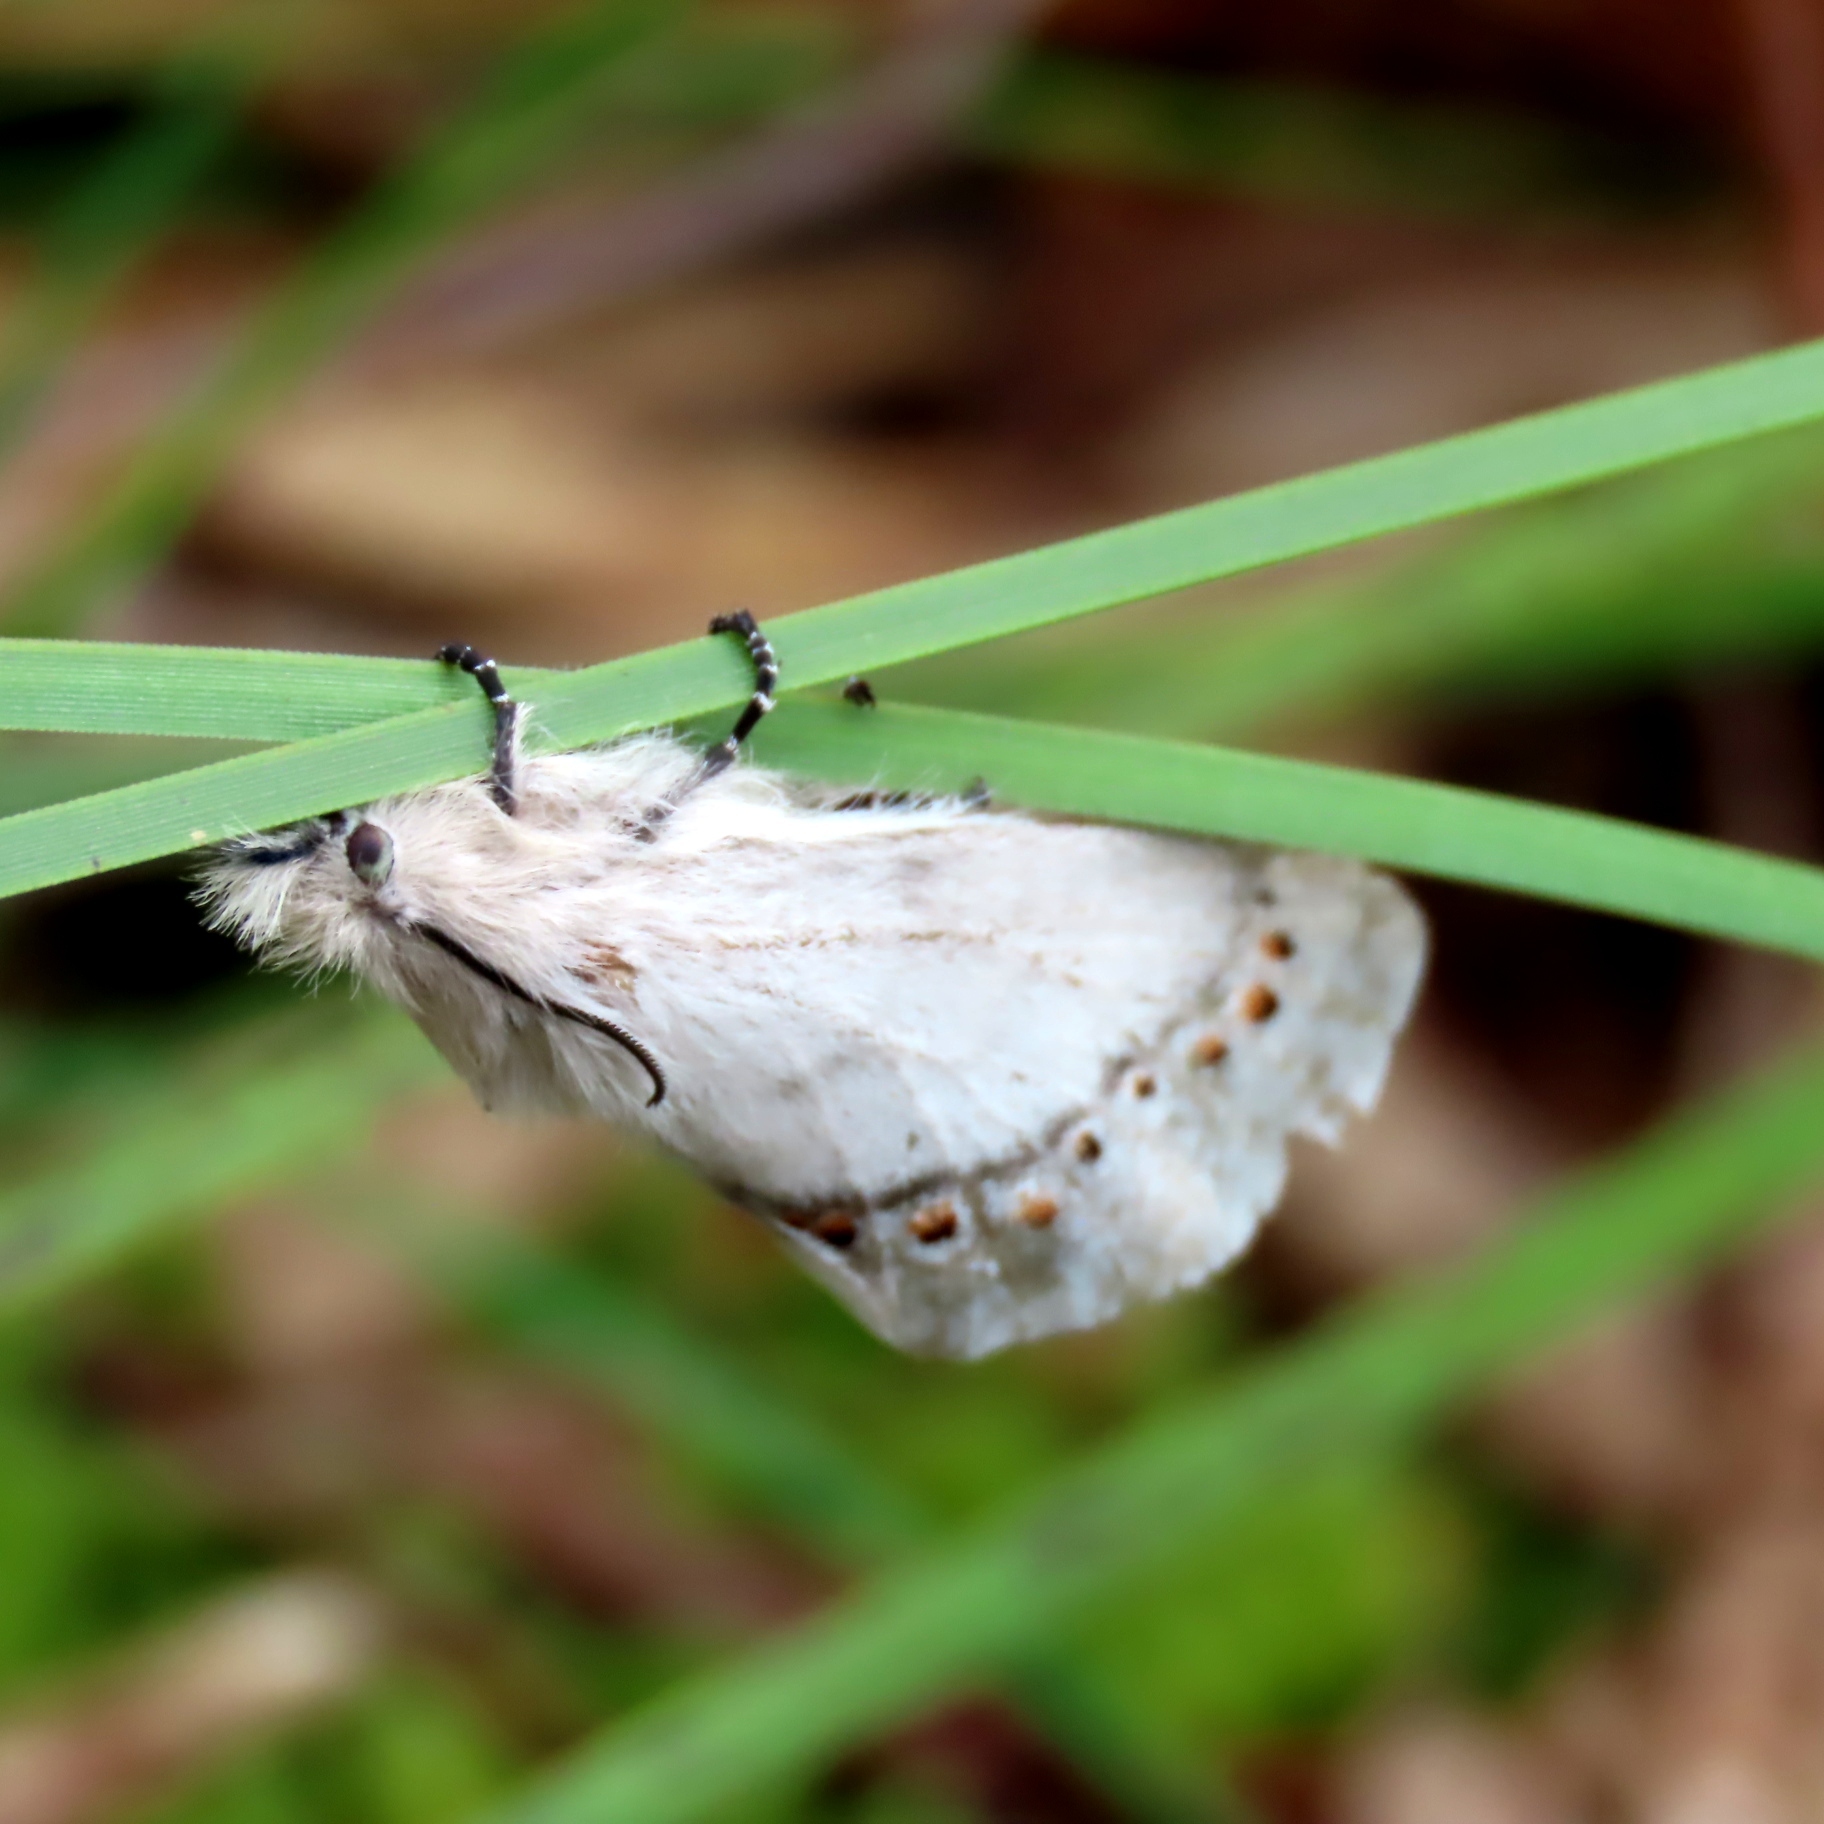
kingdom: Animalia
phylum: Arthropoda
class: Insecta
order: Lepidoptera
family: Lasiocampidae
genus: Pinara
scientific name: Pinara obliqua
